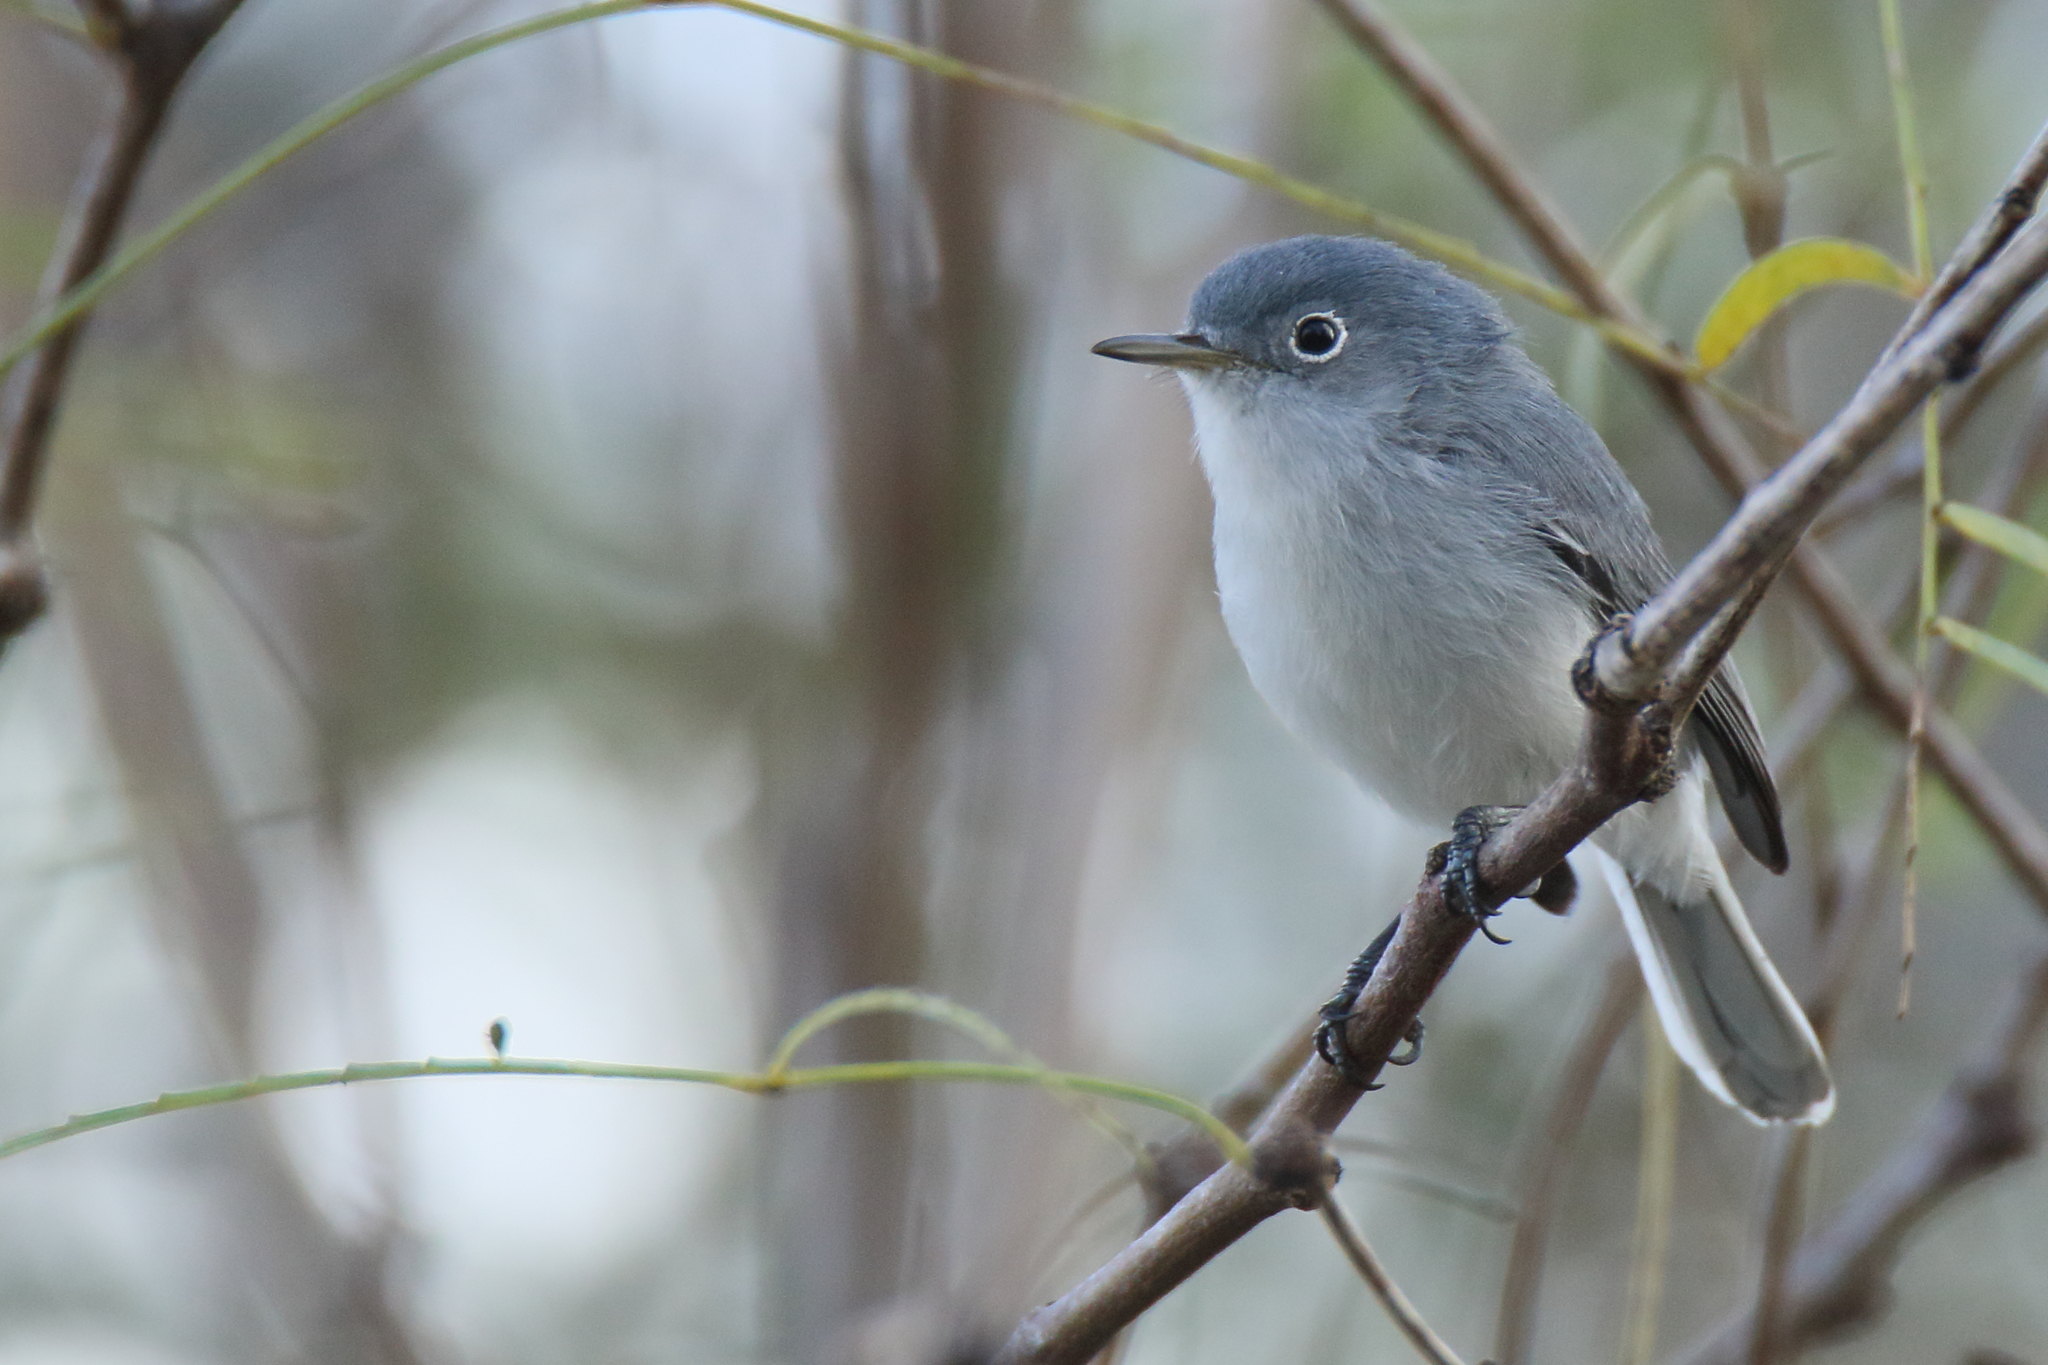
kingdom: Animalia
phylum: Chordata
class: Aves
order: Passeriformes
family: Polioptilidae
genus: Polioptila
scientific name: Polioptila caerulea
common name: Blue-gray gnatcatcher
